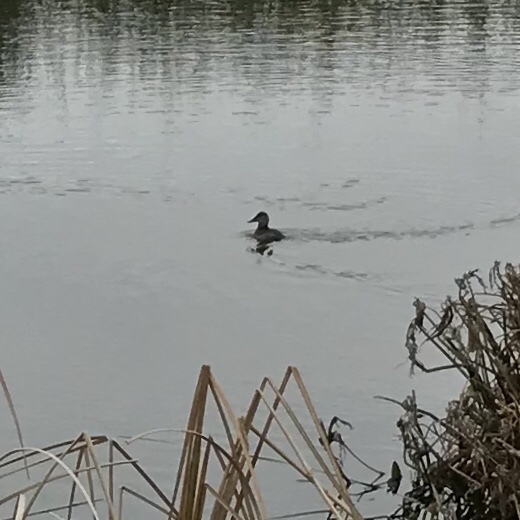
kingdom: Animalia
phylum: Chordata
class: Aves
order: Anseriformes
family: Anatidae
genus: Oxyura
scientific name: Oxyura jamaicensis
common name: Ruddy duck
